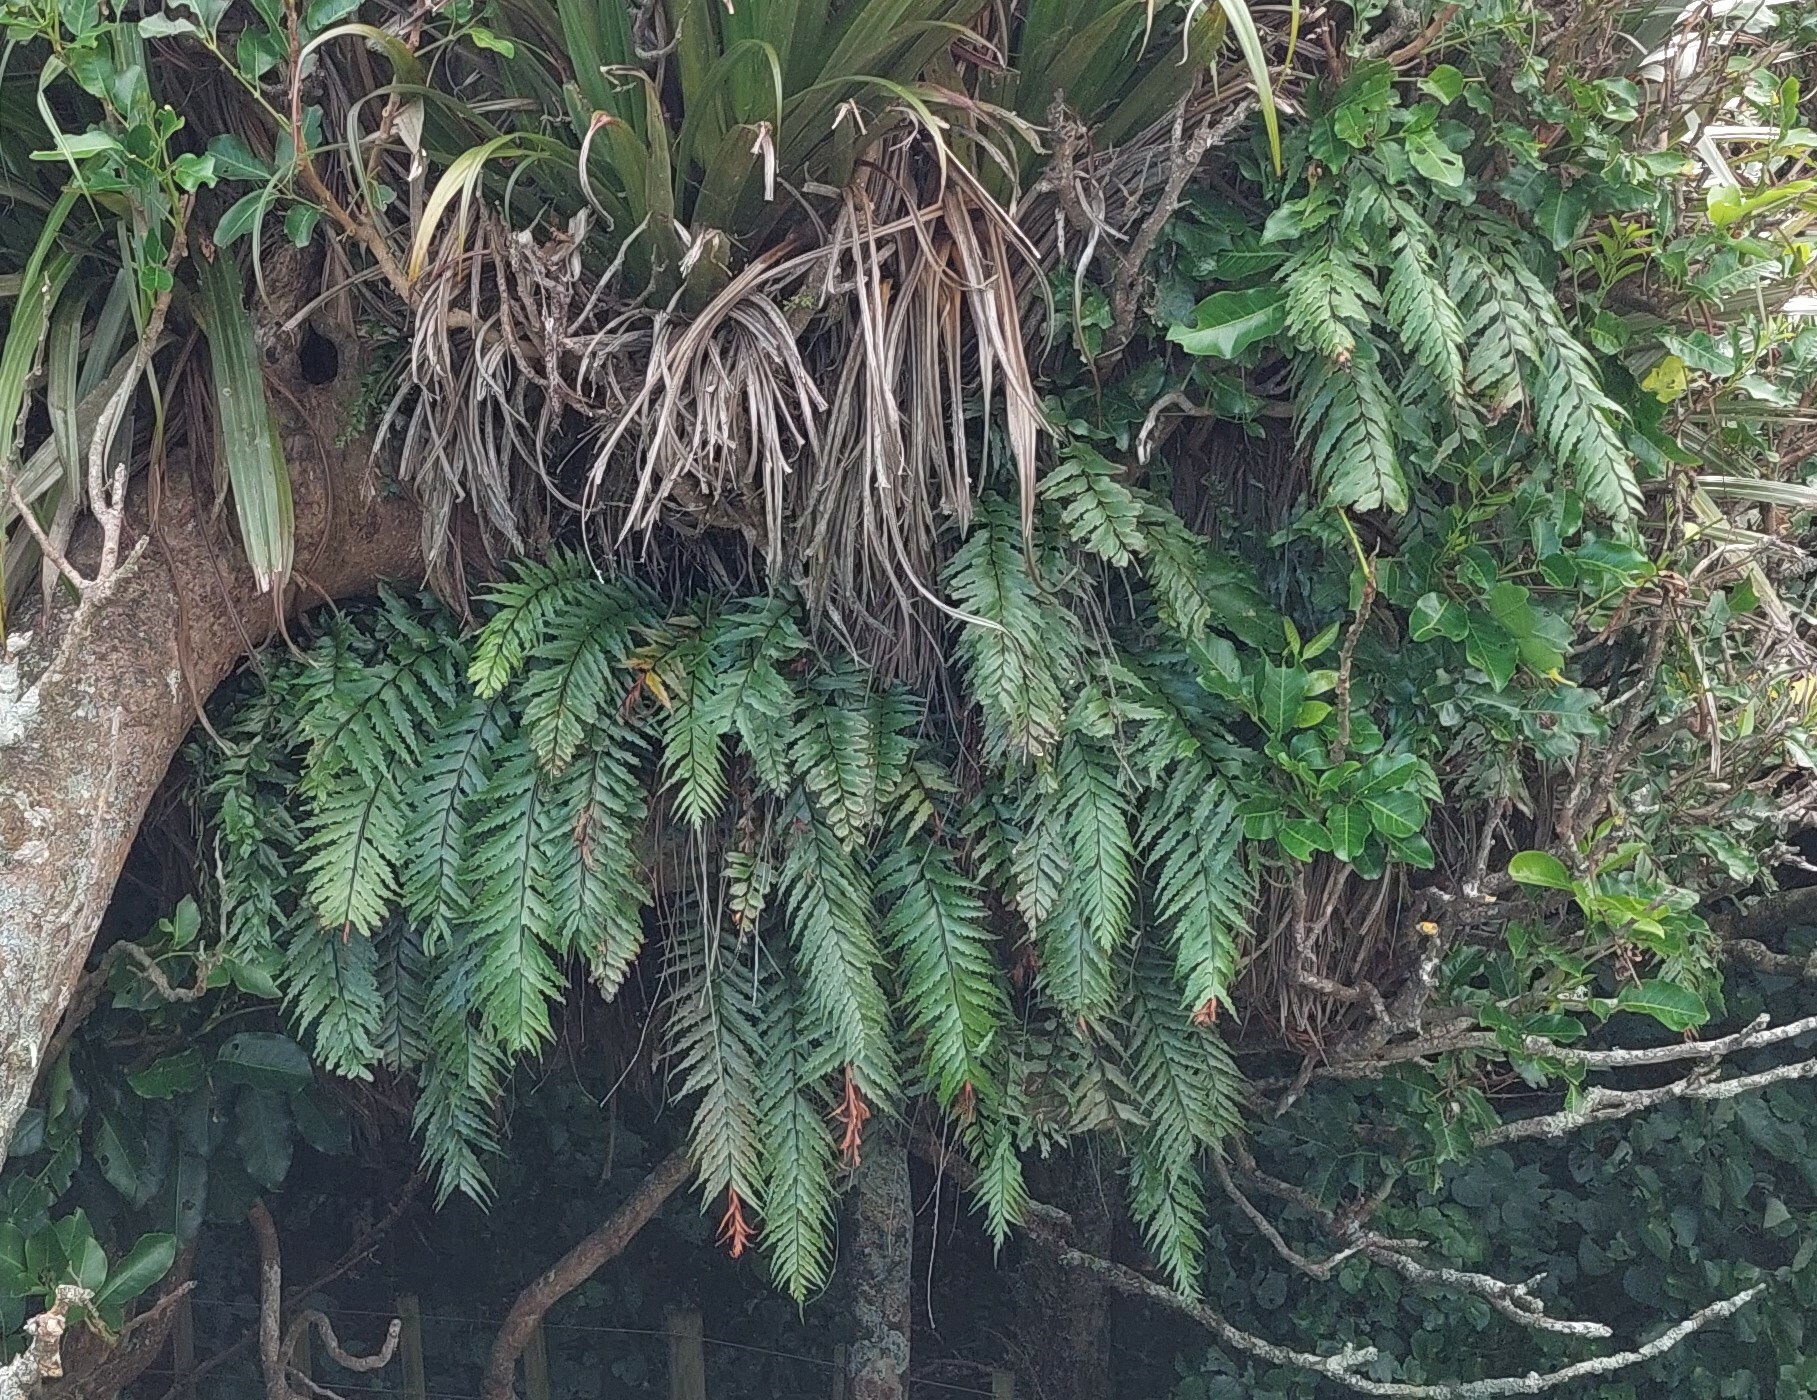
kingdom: Plantae
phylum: Tracheophyta
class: Polypodiopsida
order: Polypodiales
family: Aspleniaceae
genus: Asplenium
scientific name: Asplenium polyodon
